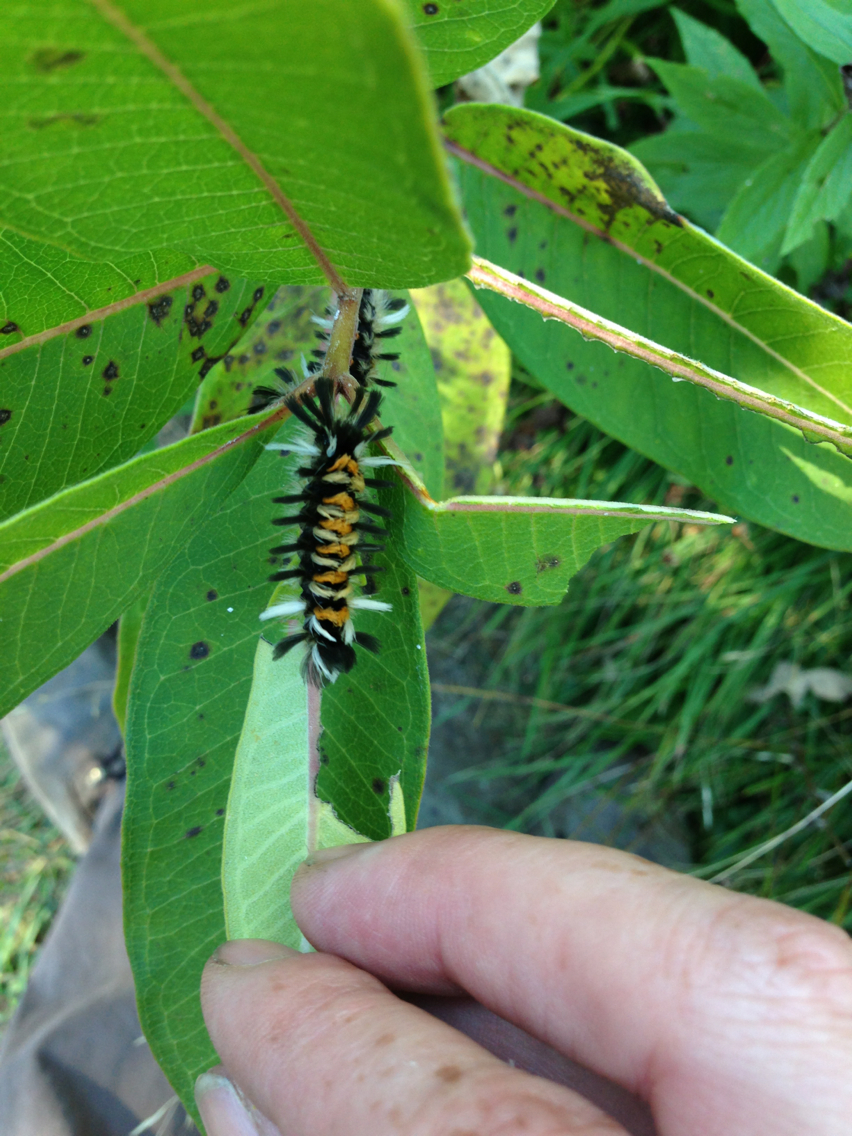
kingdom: Plantae
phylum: Tracheophyta
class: Magnoliopsida
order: Gentianales
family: Apocynaceae
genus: Asclepias
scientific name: Asclepias syriaca
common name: Common milkweed
